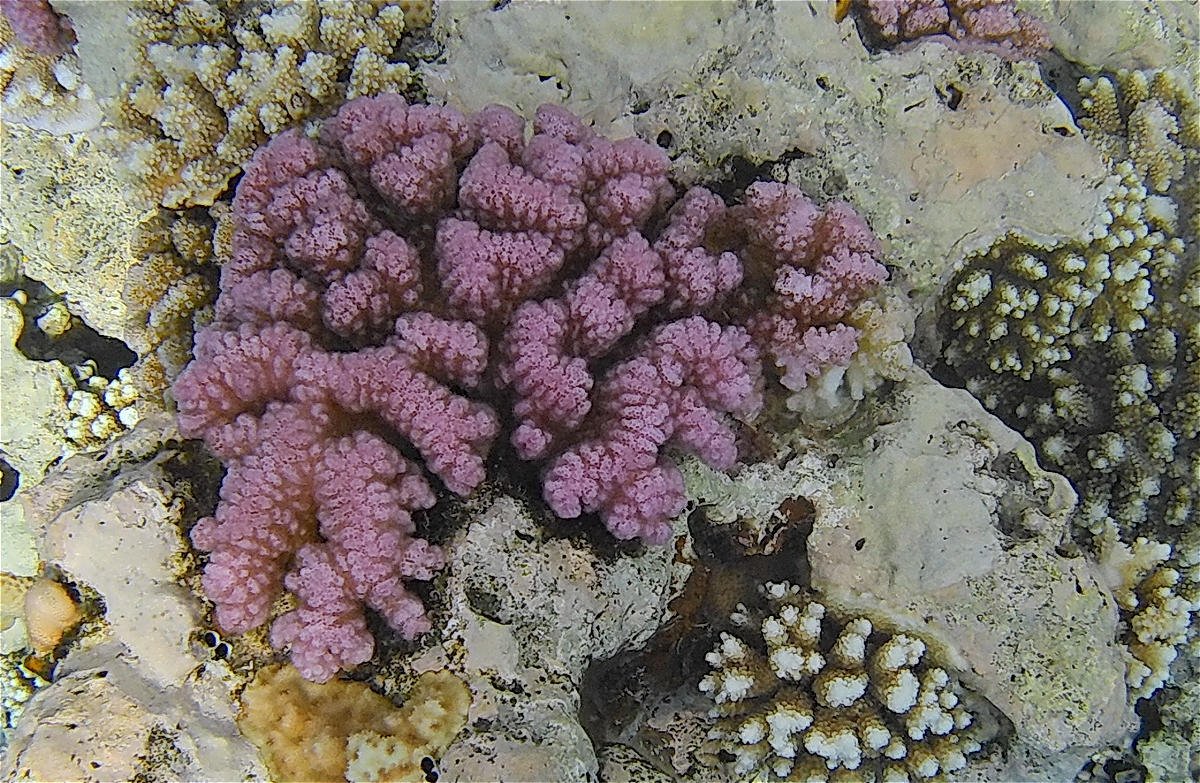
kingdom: Animalia
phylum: Cnidaria
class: Anthozoa
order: Scleractinia
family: Pocilloporidae
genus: Pocillopora
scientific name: Pocillopora verrucosa
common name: Cauliflower coral
